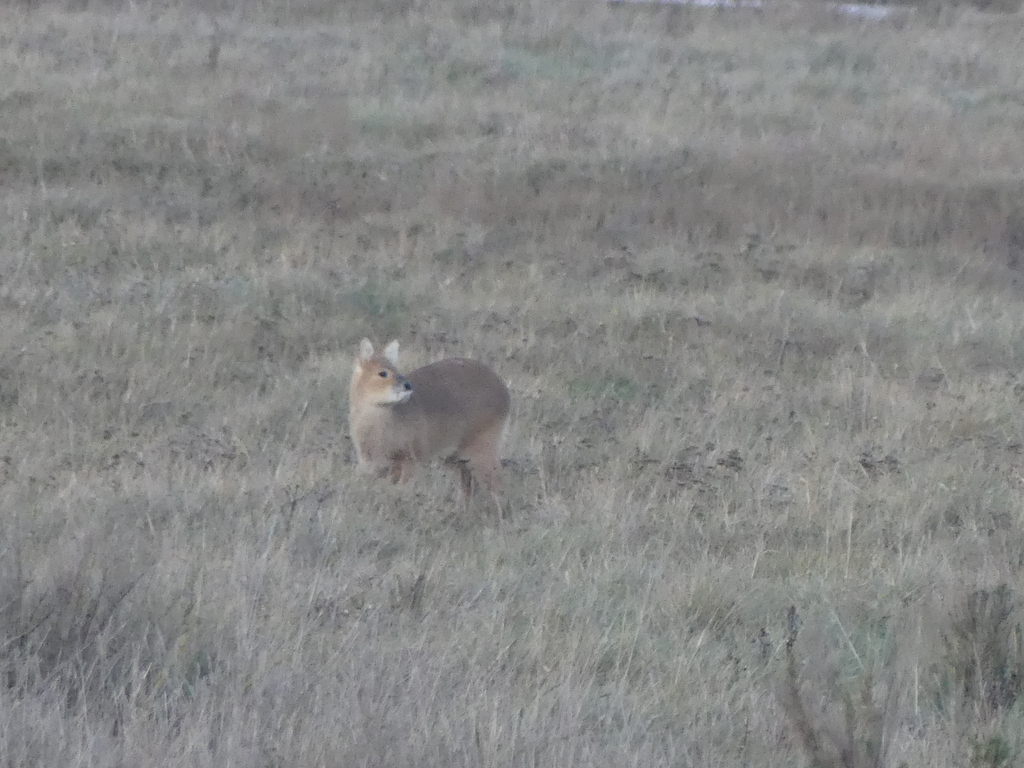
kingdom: Animalia
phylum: Chordata
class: Mammalia
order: Artiodactyla
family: Cervidae
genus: Hydropotes
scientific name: Hydropotes inermis
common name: Chinese water deer
